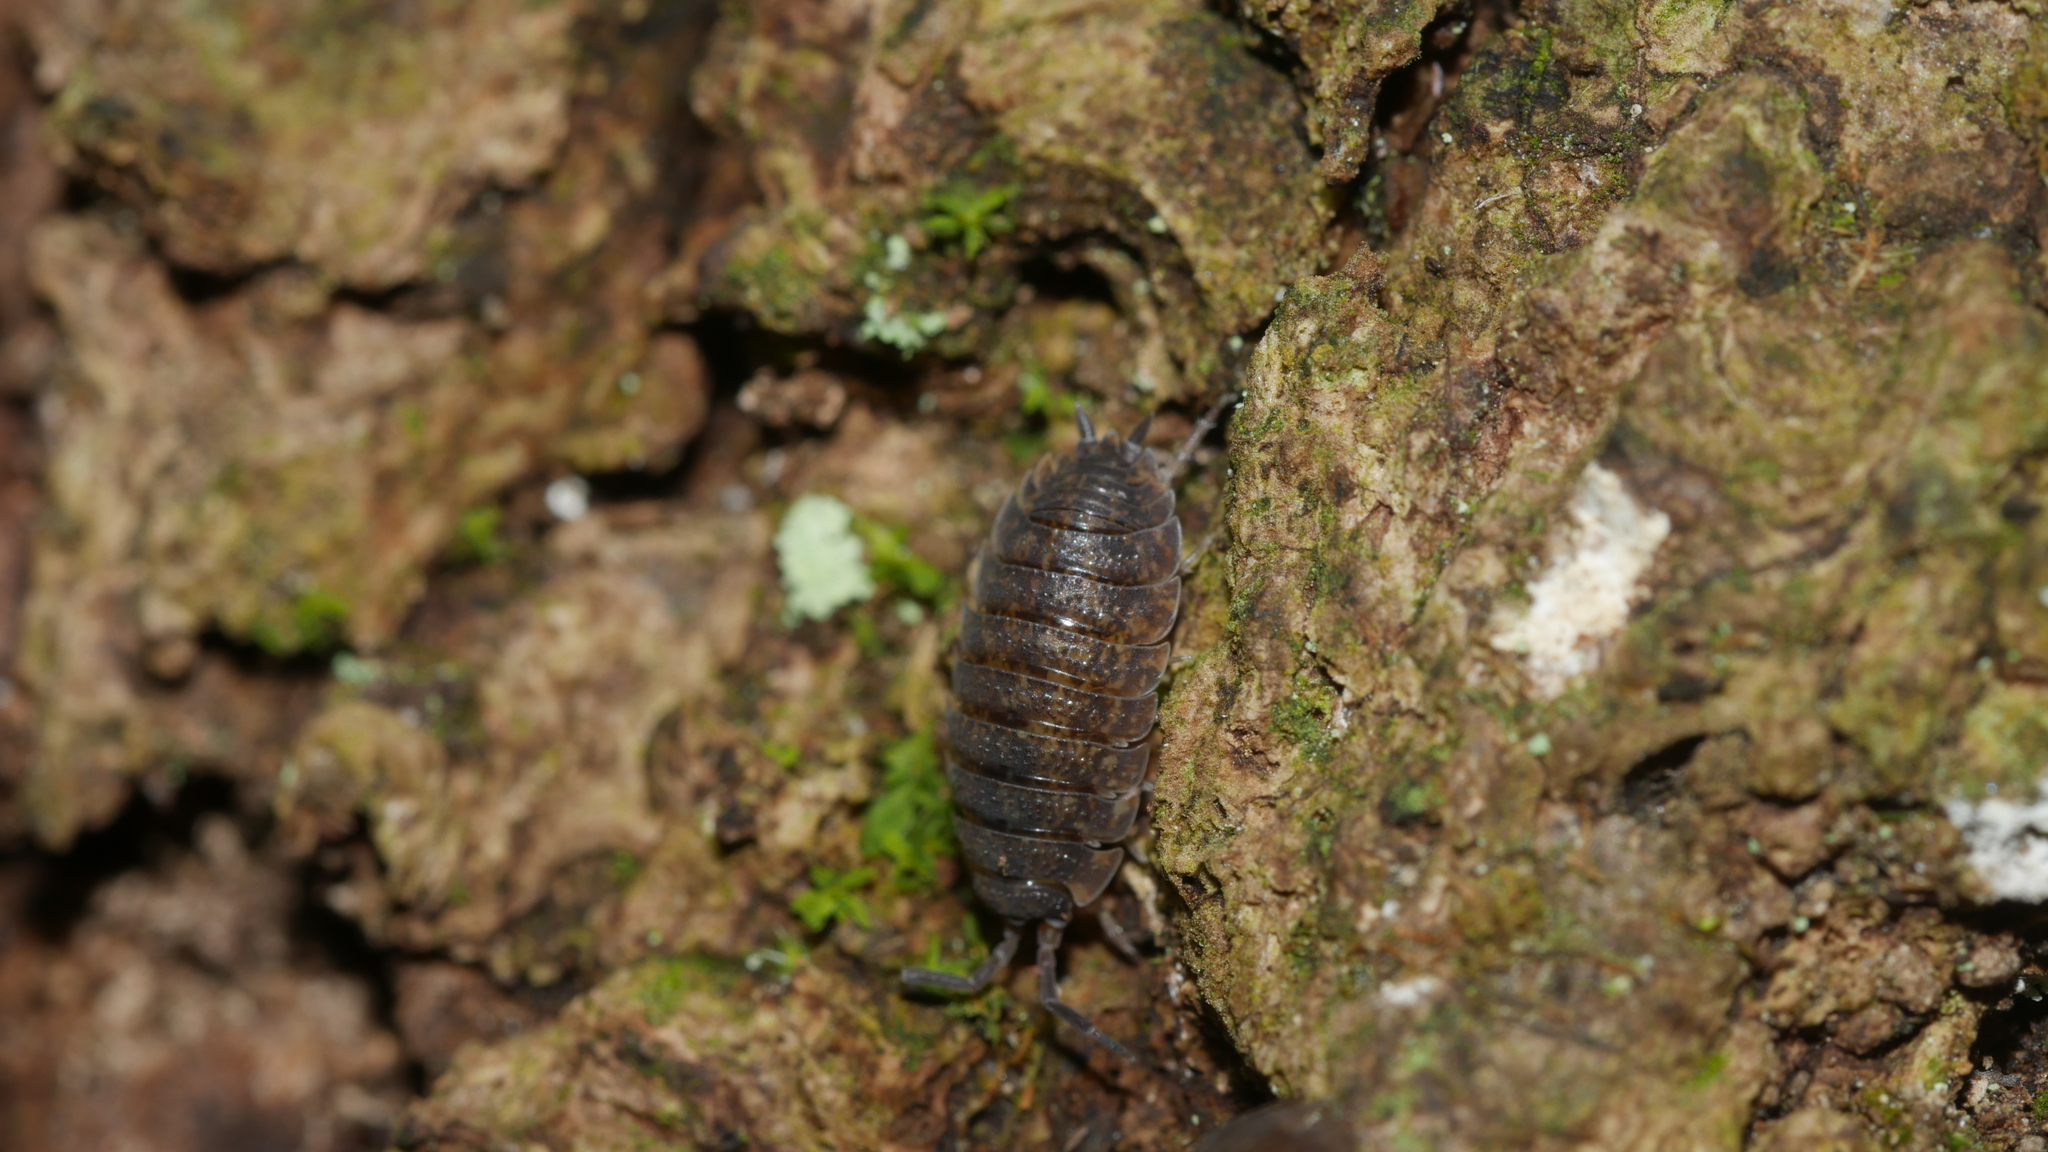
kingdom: Animalia
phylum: Arthropoda
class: Malacostraca
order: Isopoda
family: Porcellionidae
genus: Porcellio
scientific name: Porcellio scaber
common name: Common rough woodlouse
